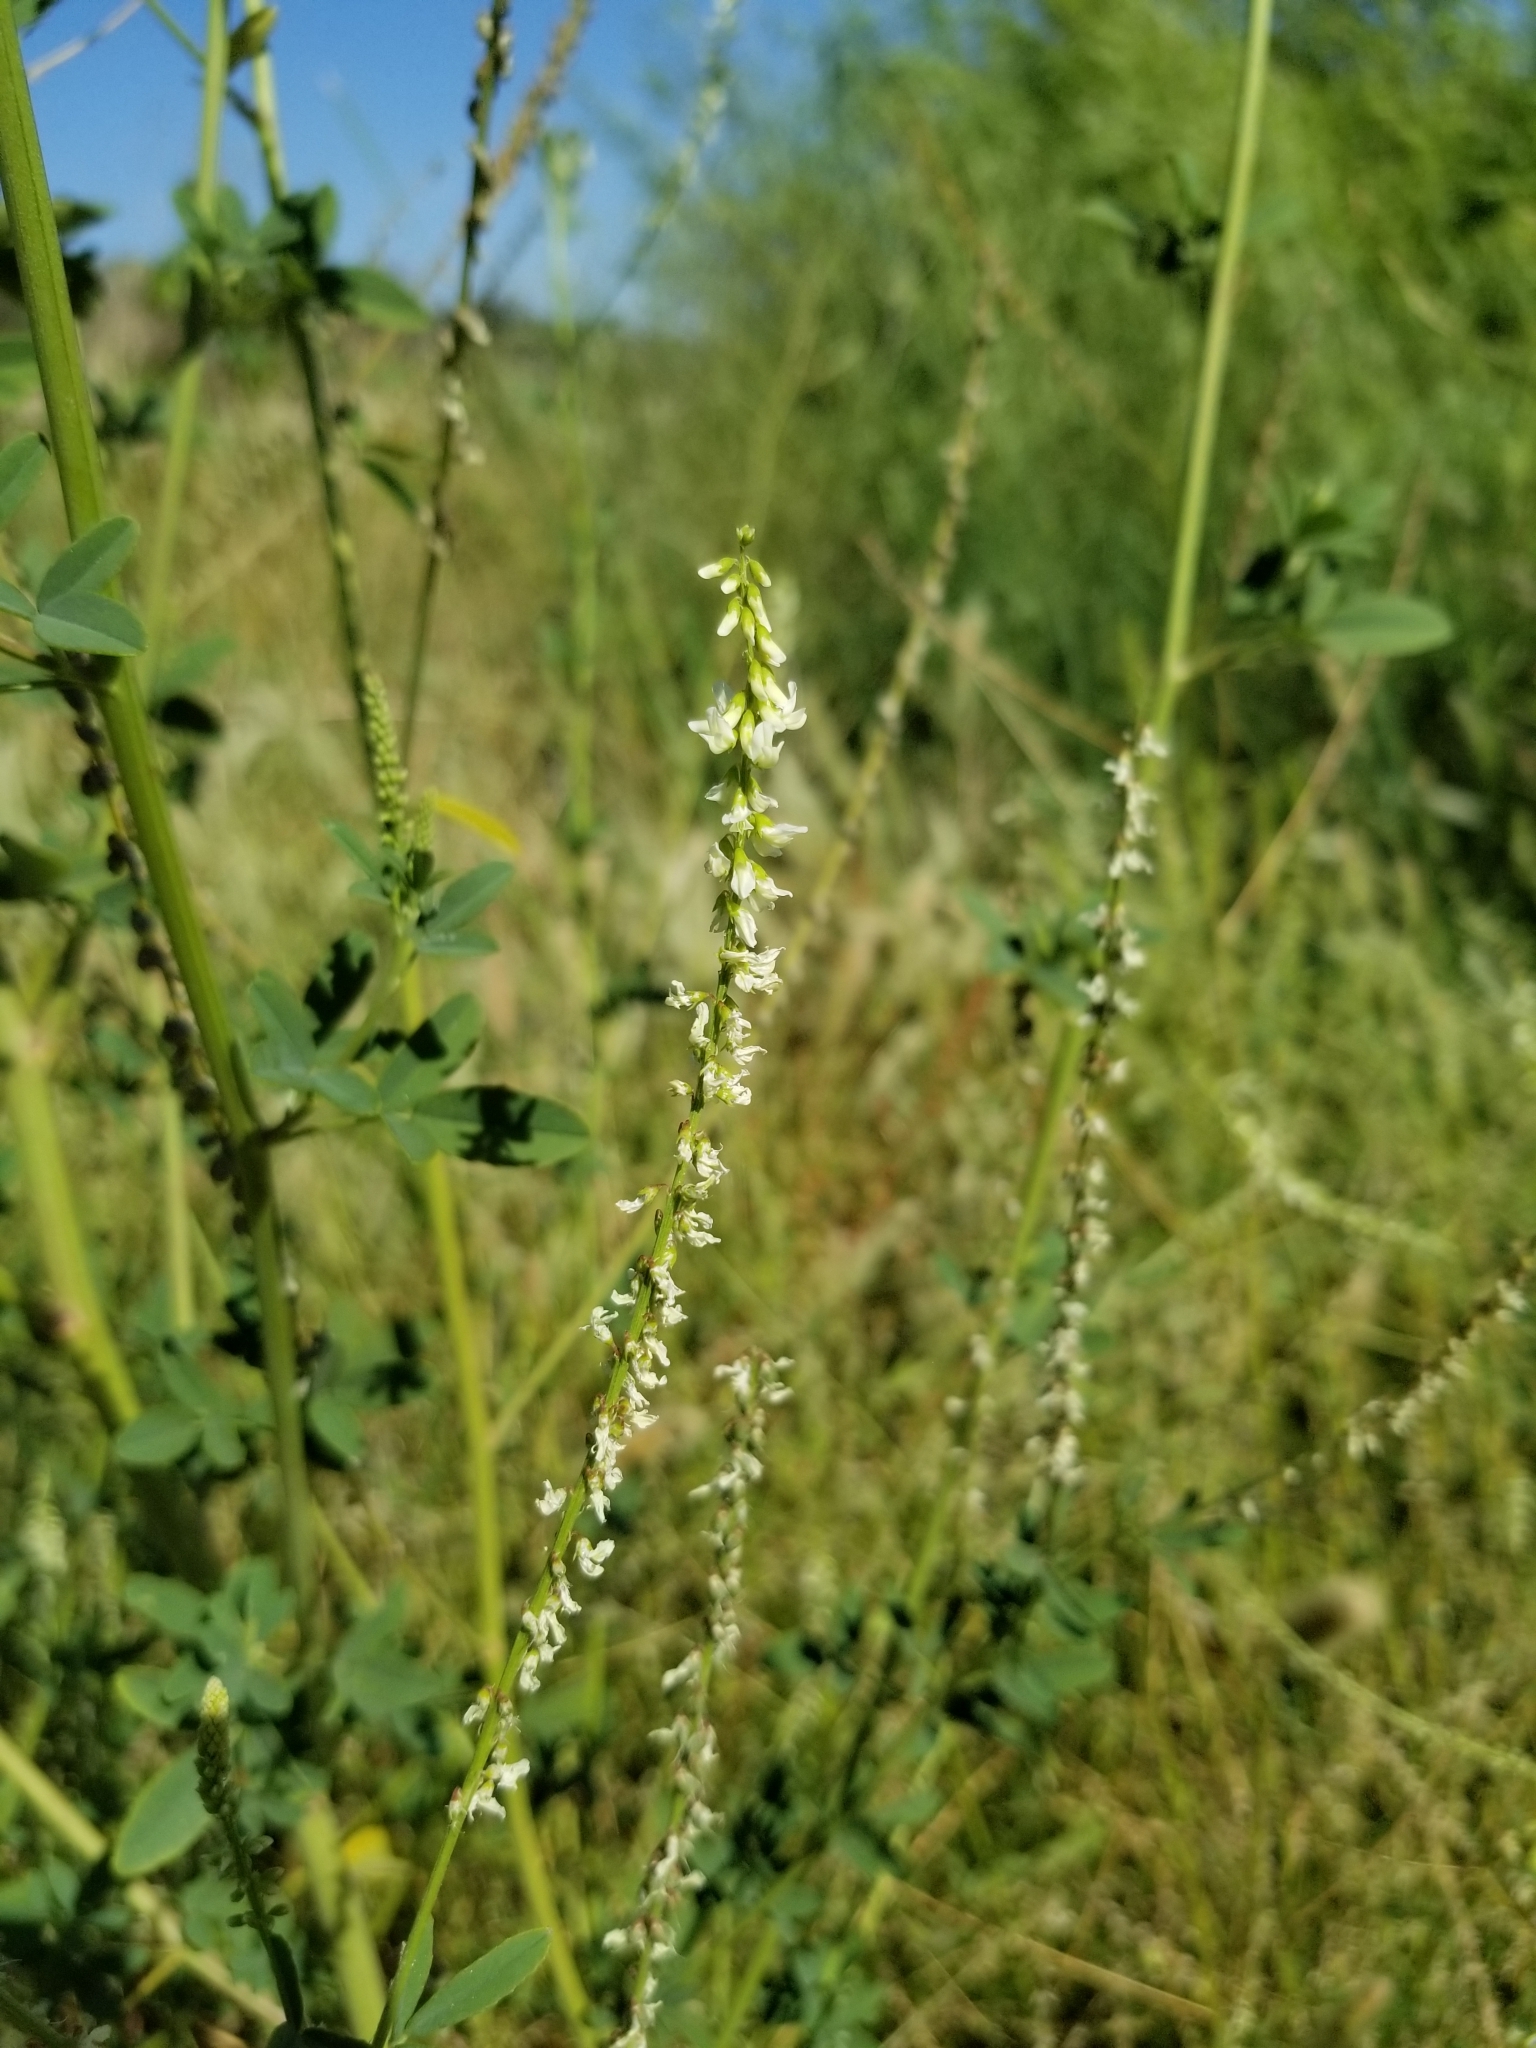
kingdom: Plantae
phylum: Tracheophyta
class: Magnoliopsida
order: Fabales
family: Fabaceae
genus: Melilotus
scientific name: Melilotus albus
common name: White melilot
